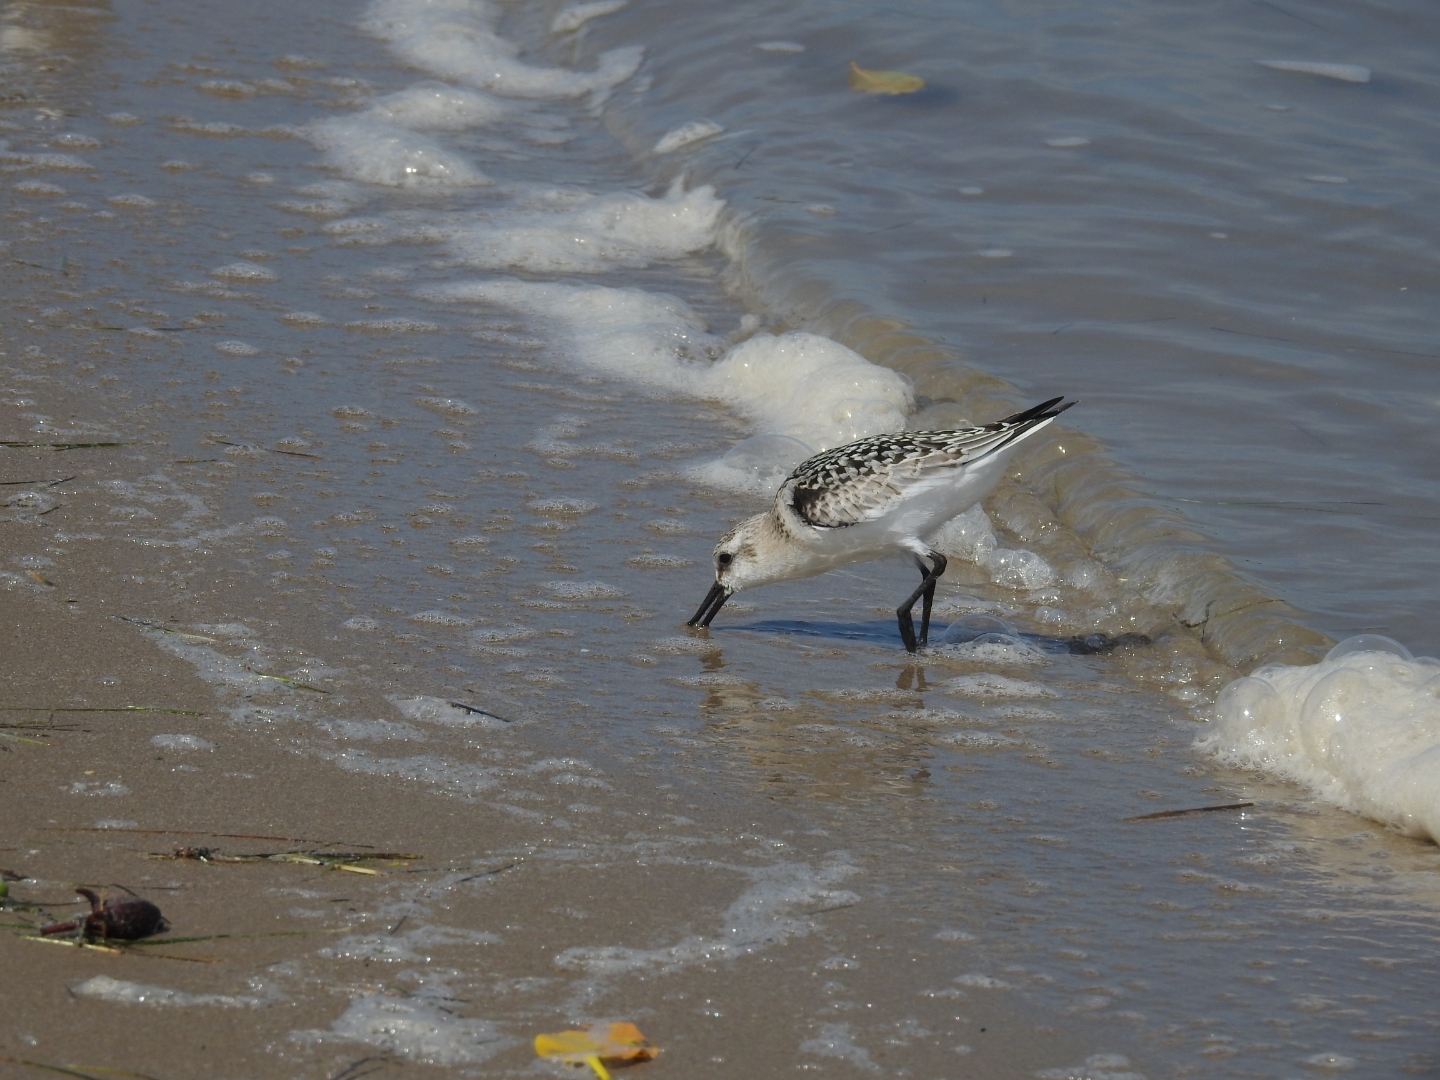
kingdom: Animalia
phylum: Chordata
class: Aves
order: Charadriiformes
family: Scolopacidae
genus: Calidris
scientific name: Calidris alba
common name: Sanderling
